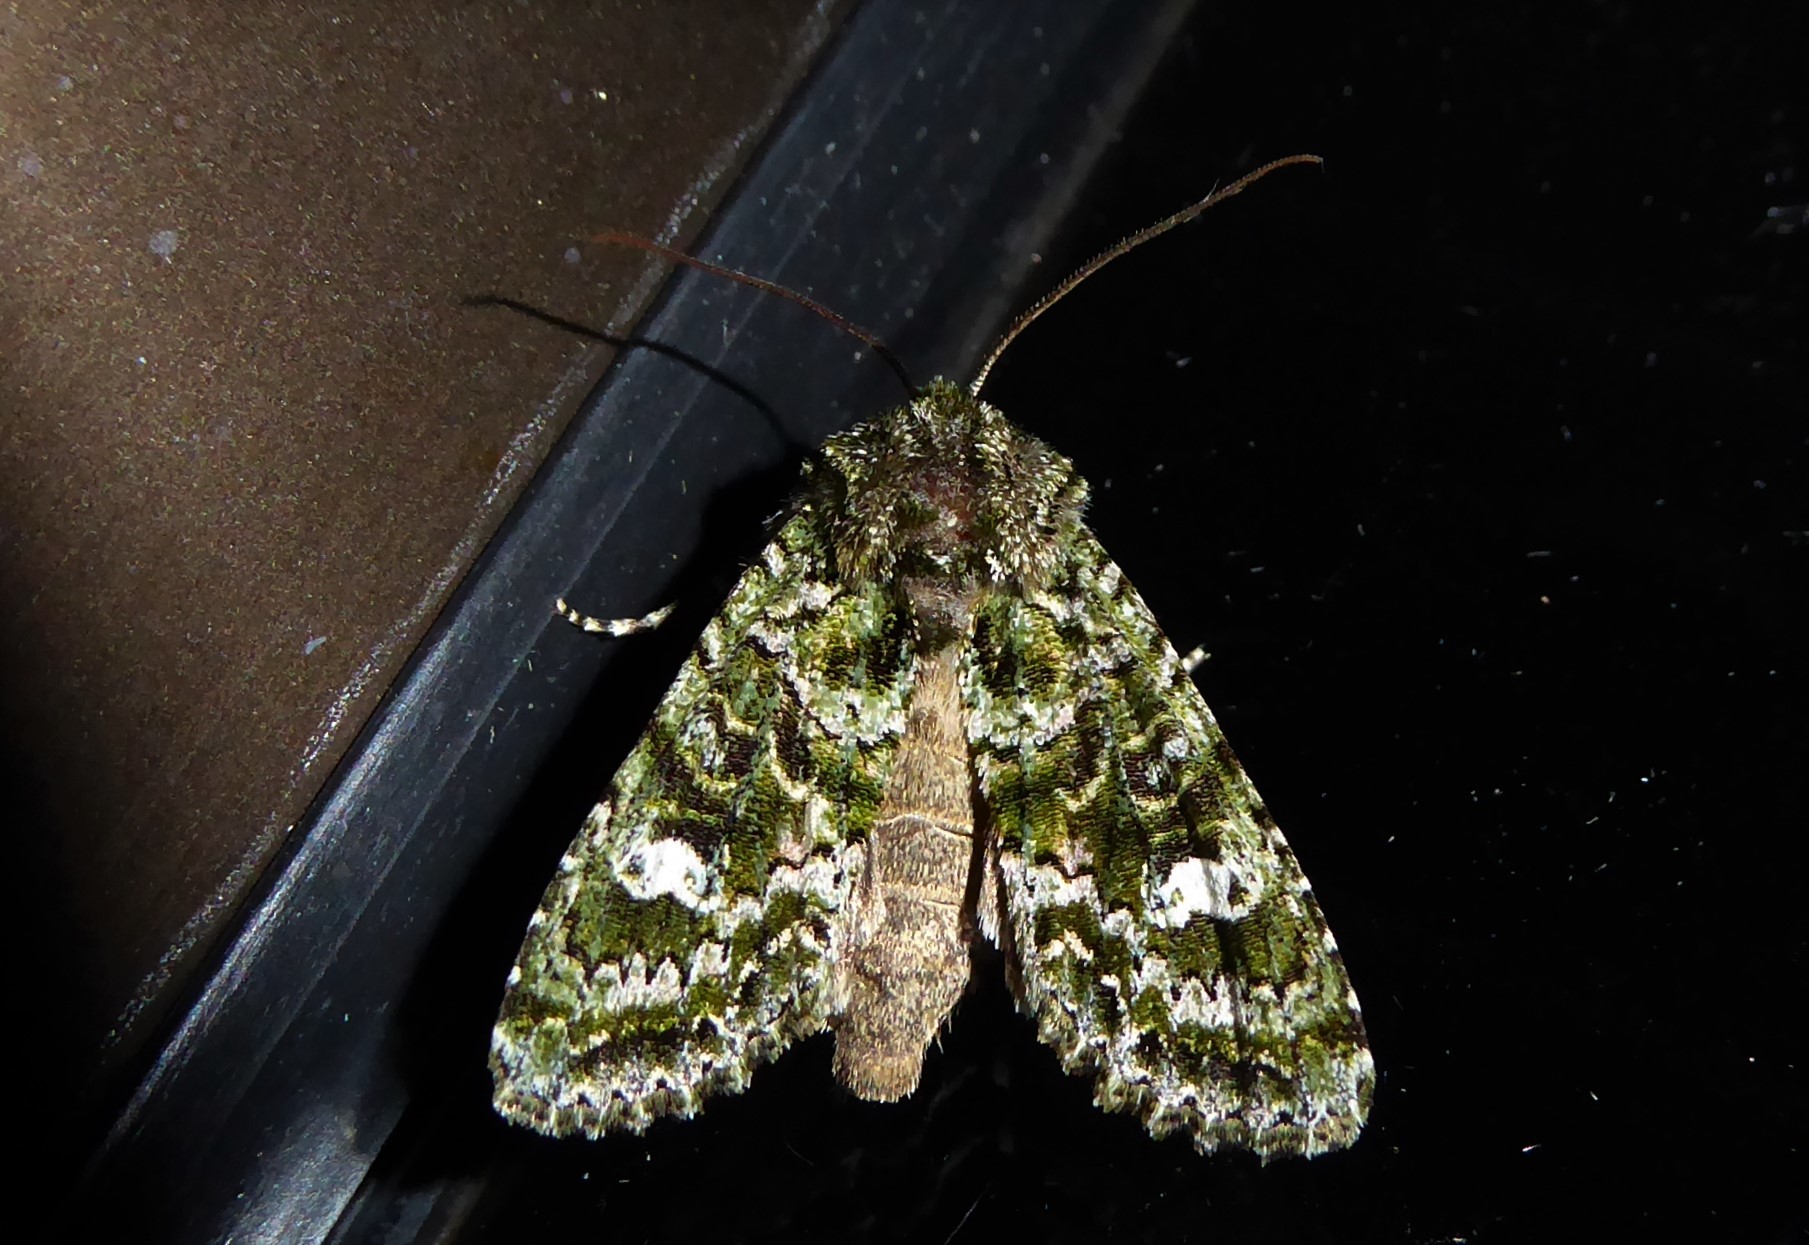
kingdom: Animalia
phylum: Arthropoda
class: Insecta
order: Lepidoptera
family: Noctuidae
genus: Ichneutica
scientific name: Ichneutica
